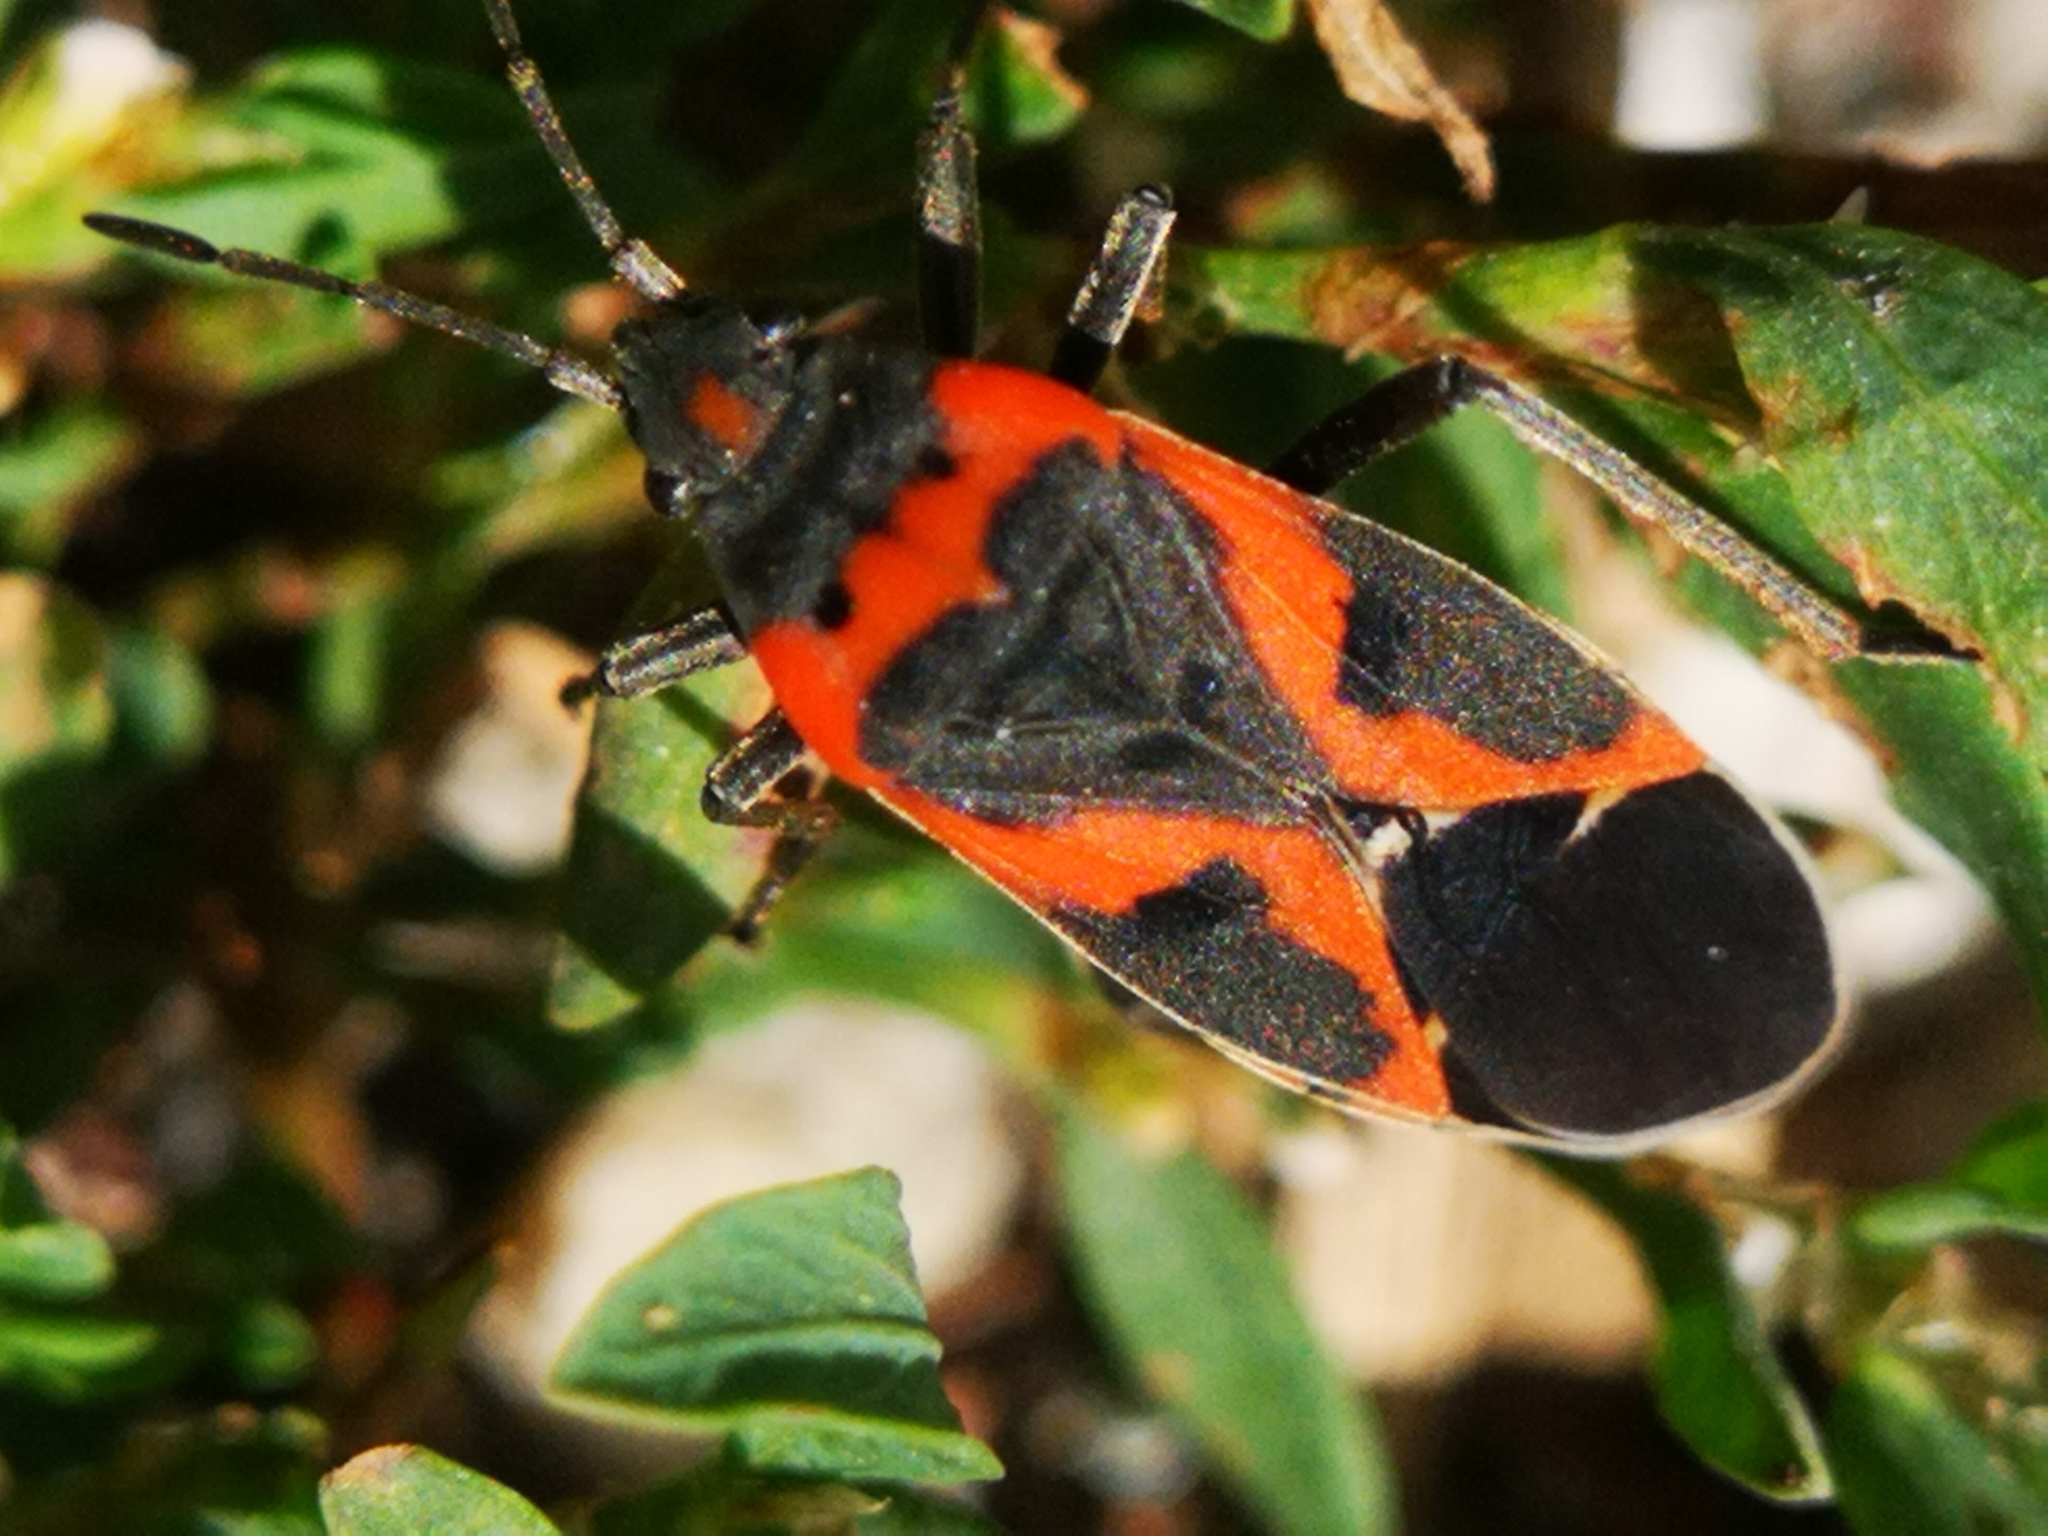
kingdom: Animalia
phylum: Arthropoda
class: Insecta
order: Hemiptera
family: Lygaeidae
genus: Lygaeus
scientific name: Lygaeus kalmii
